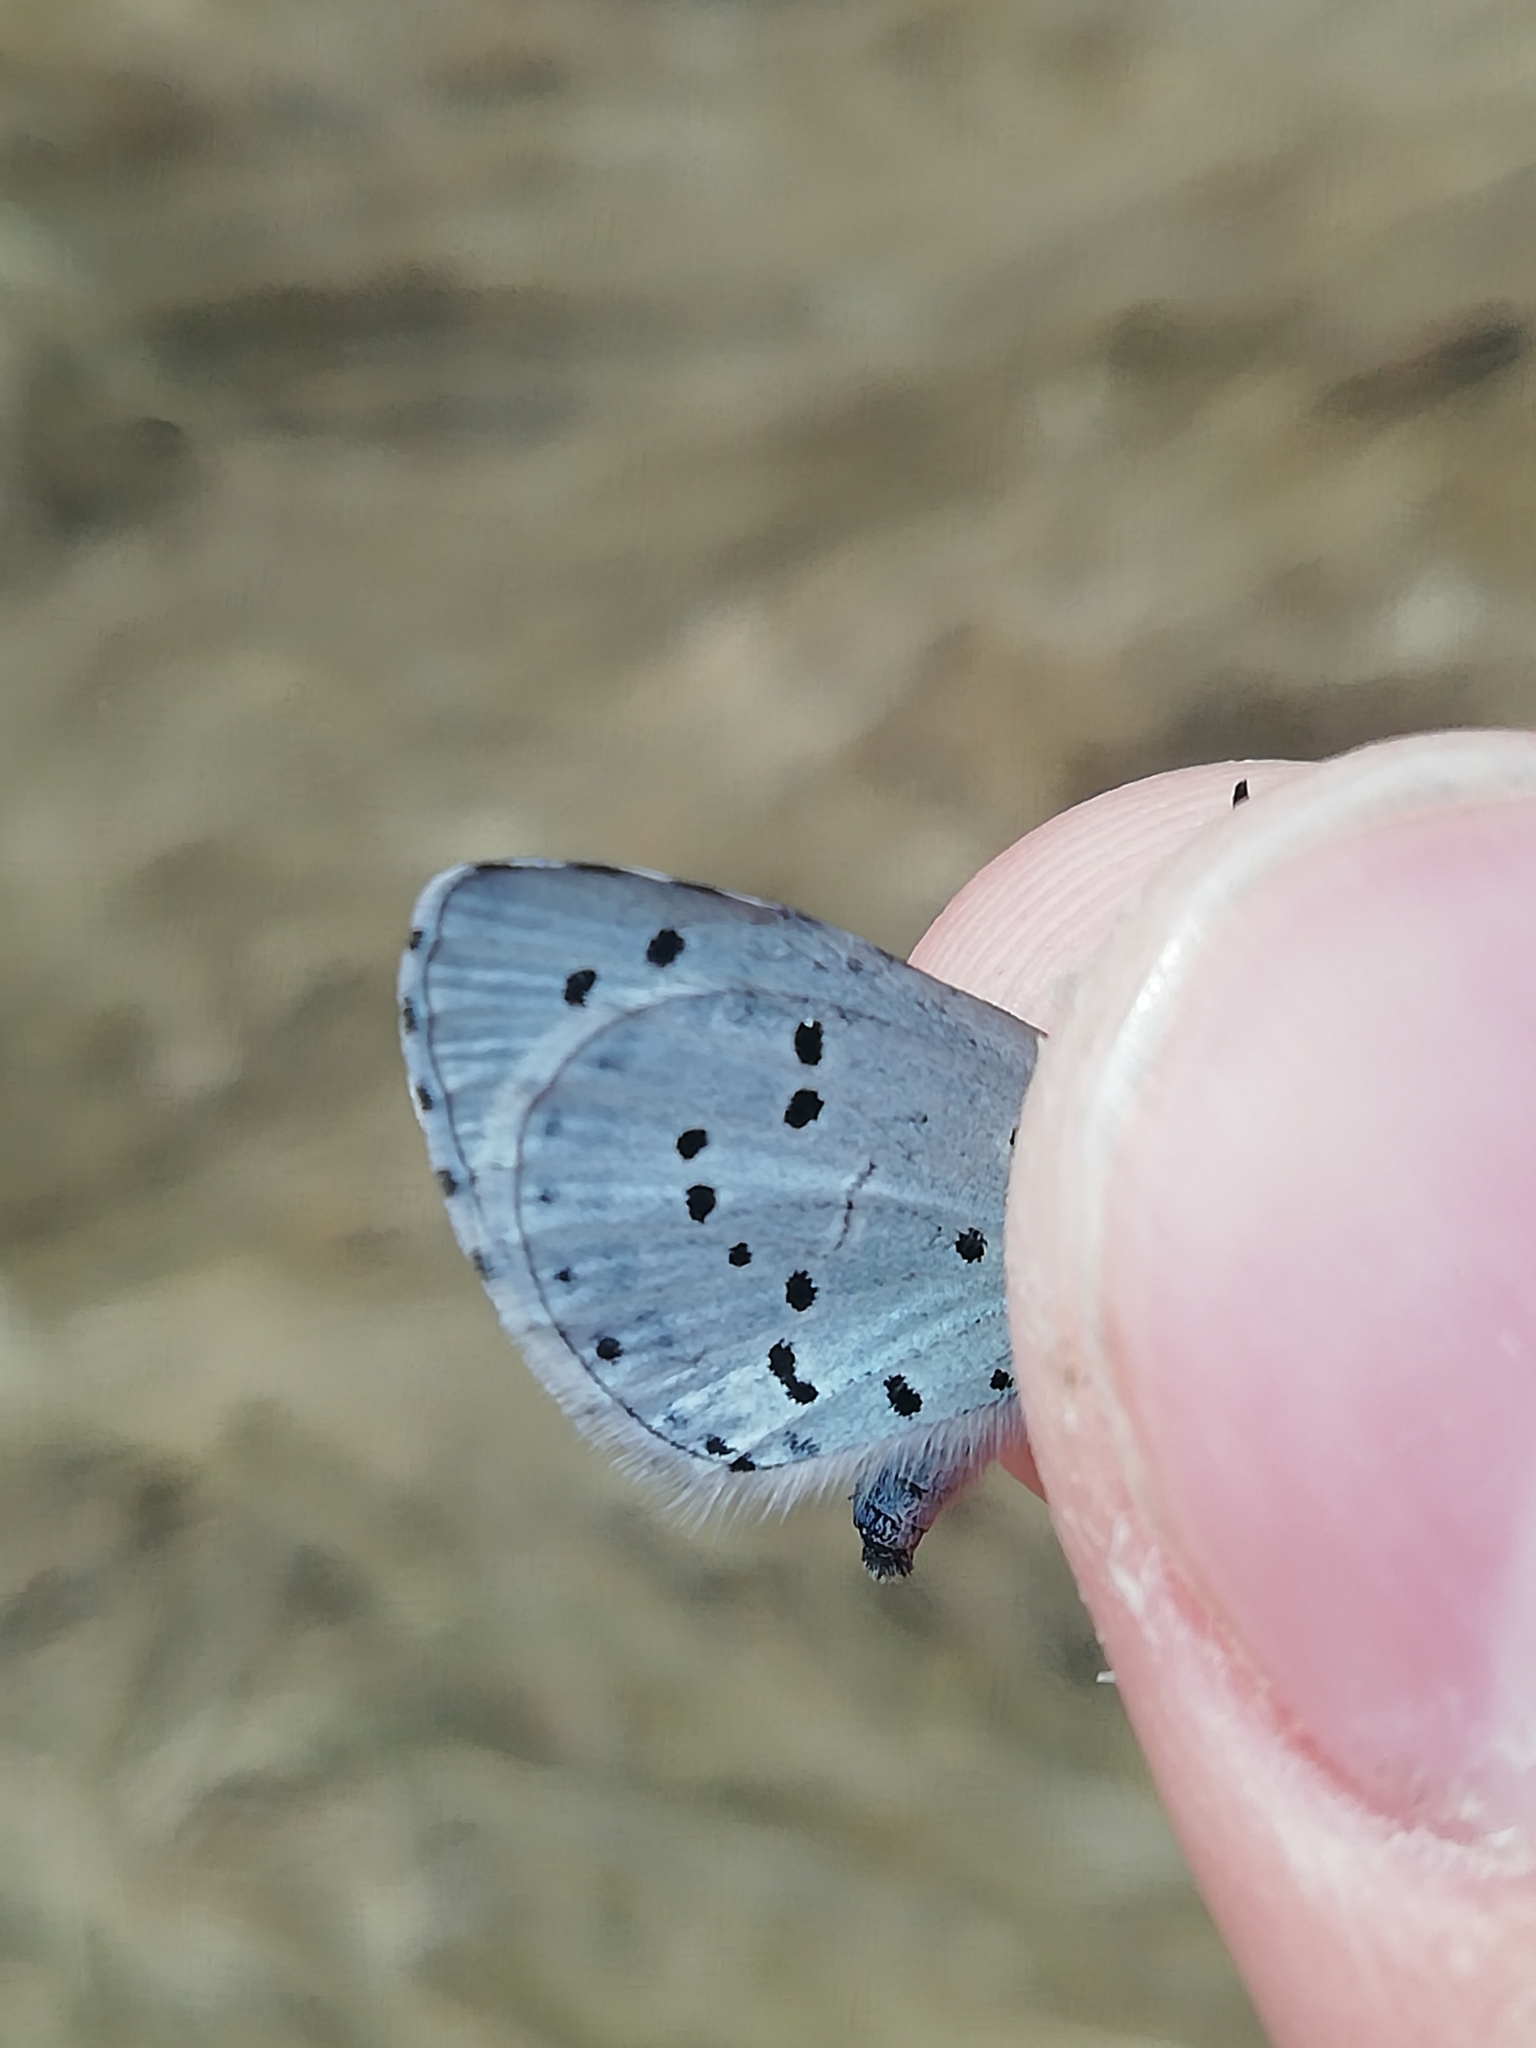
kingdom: Animalia
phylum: Arthropoda
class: Insecta
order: Lepidoptera
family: Lycaenidae
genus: Celastrina
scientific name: Celastrina argiolus
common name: Holly blue
